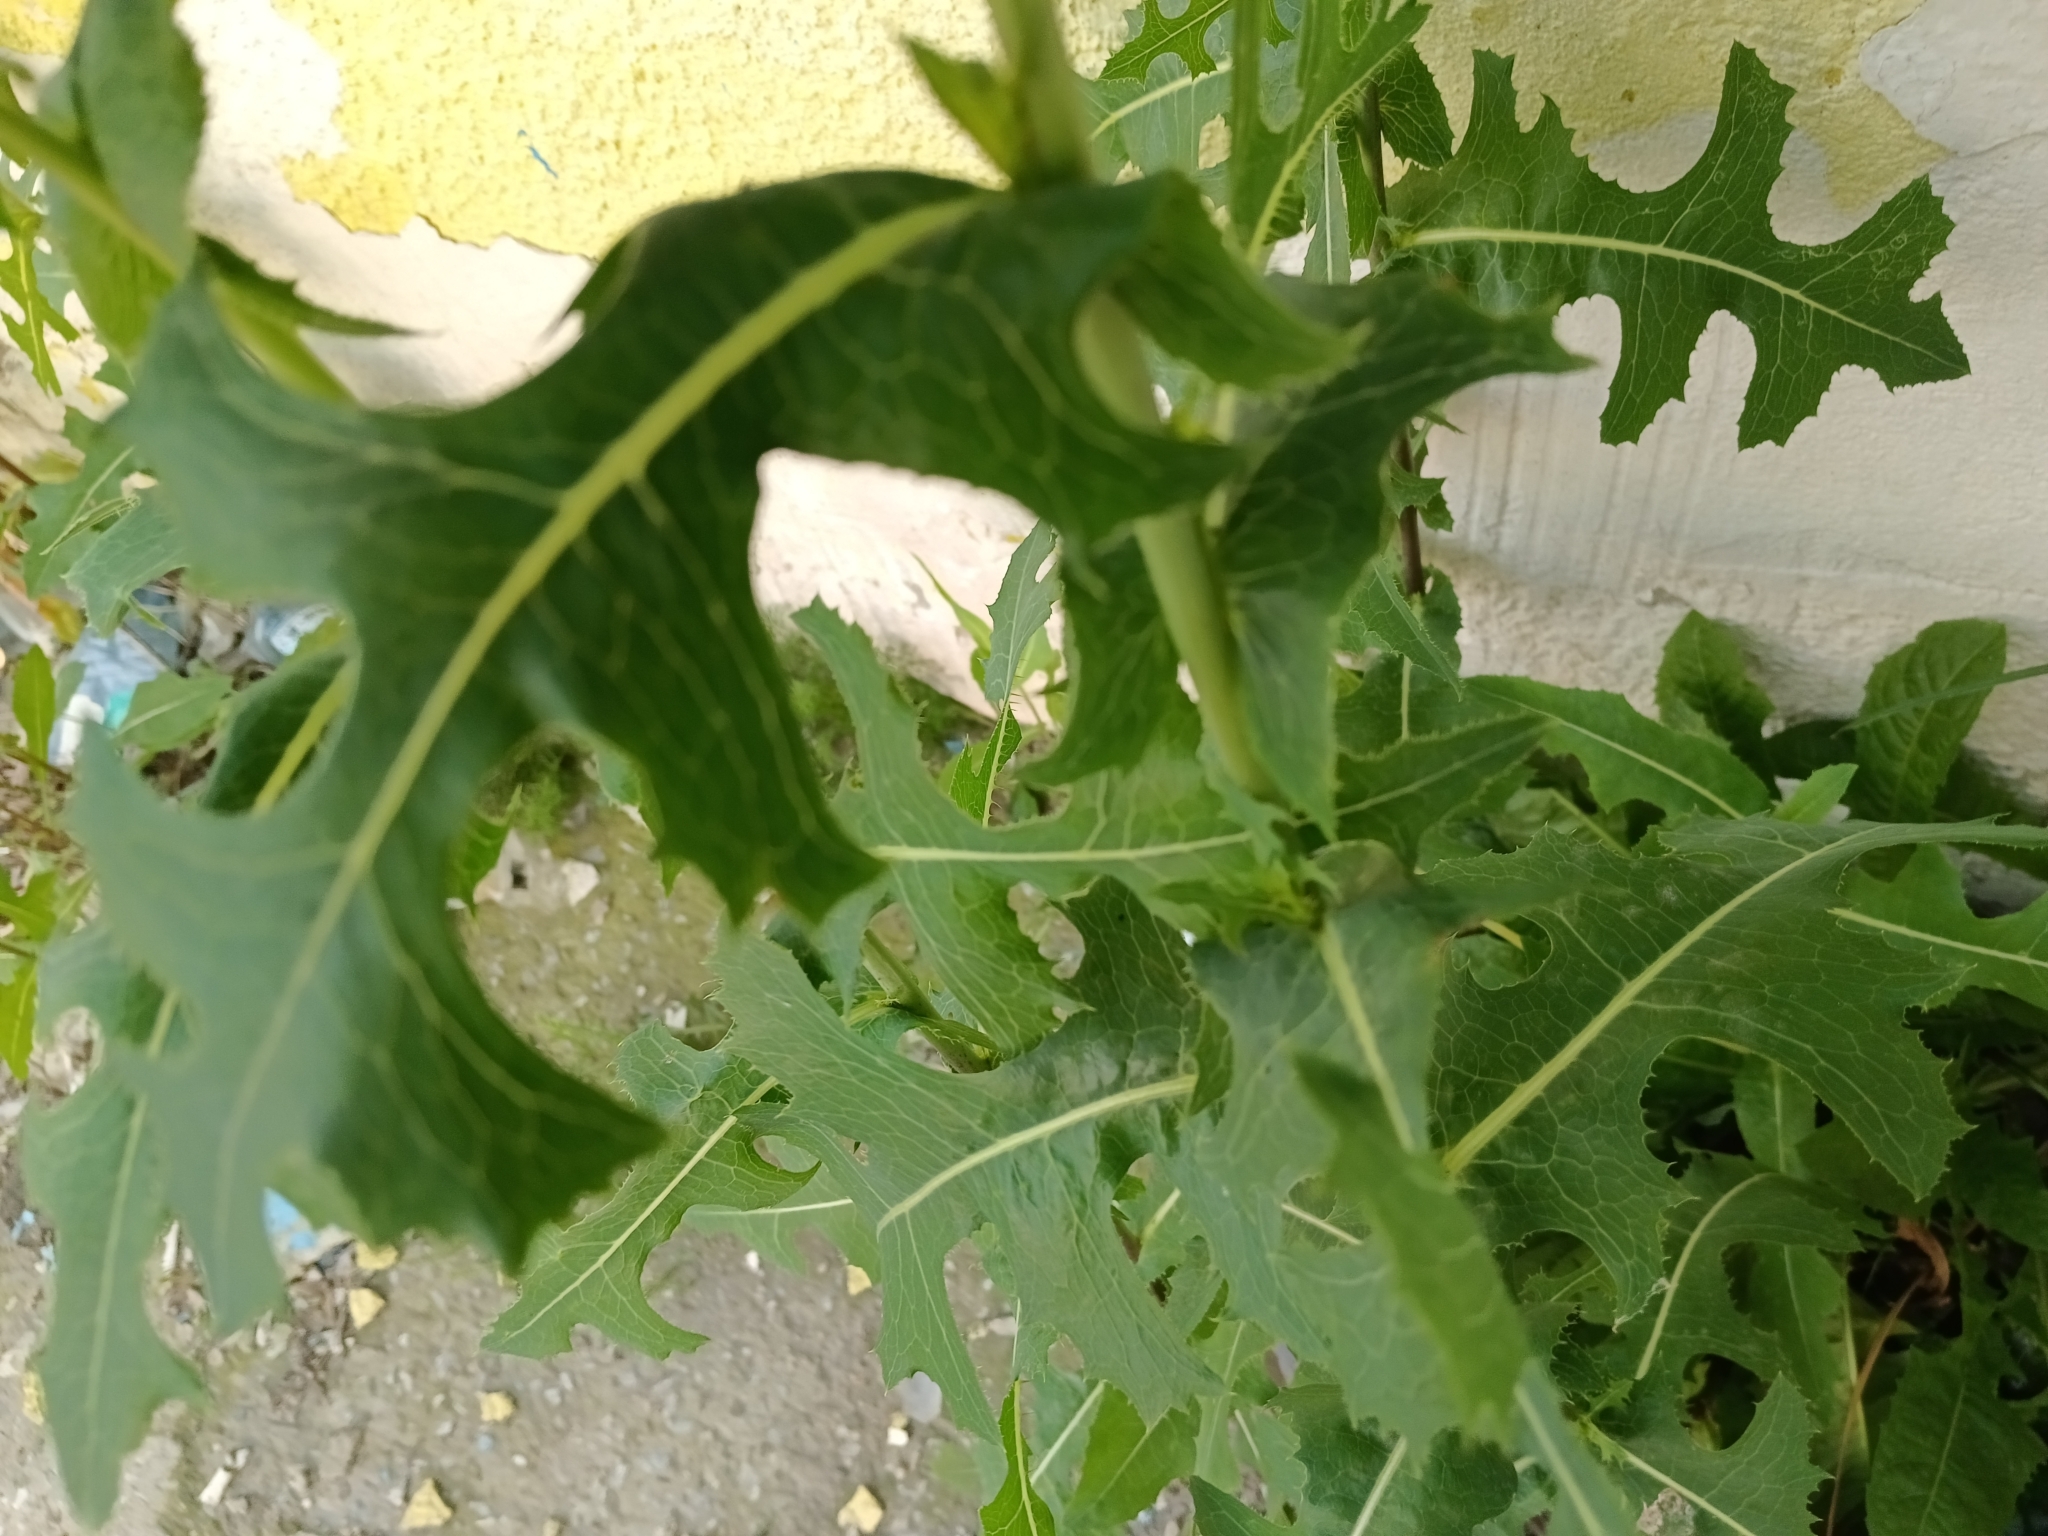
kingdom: Plantae
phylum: Tracheophyta
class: Magnoliopsida
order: Asterales
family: Asteraceae
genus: Lactuca
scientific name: Lactuca serriola
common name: Prickly lettuce
